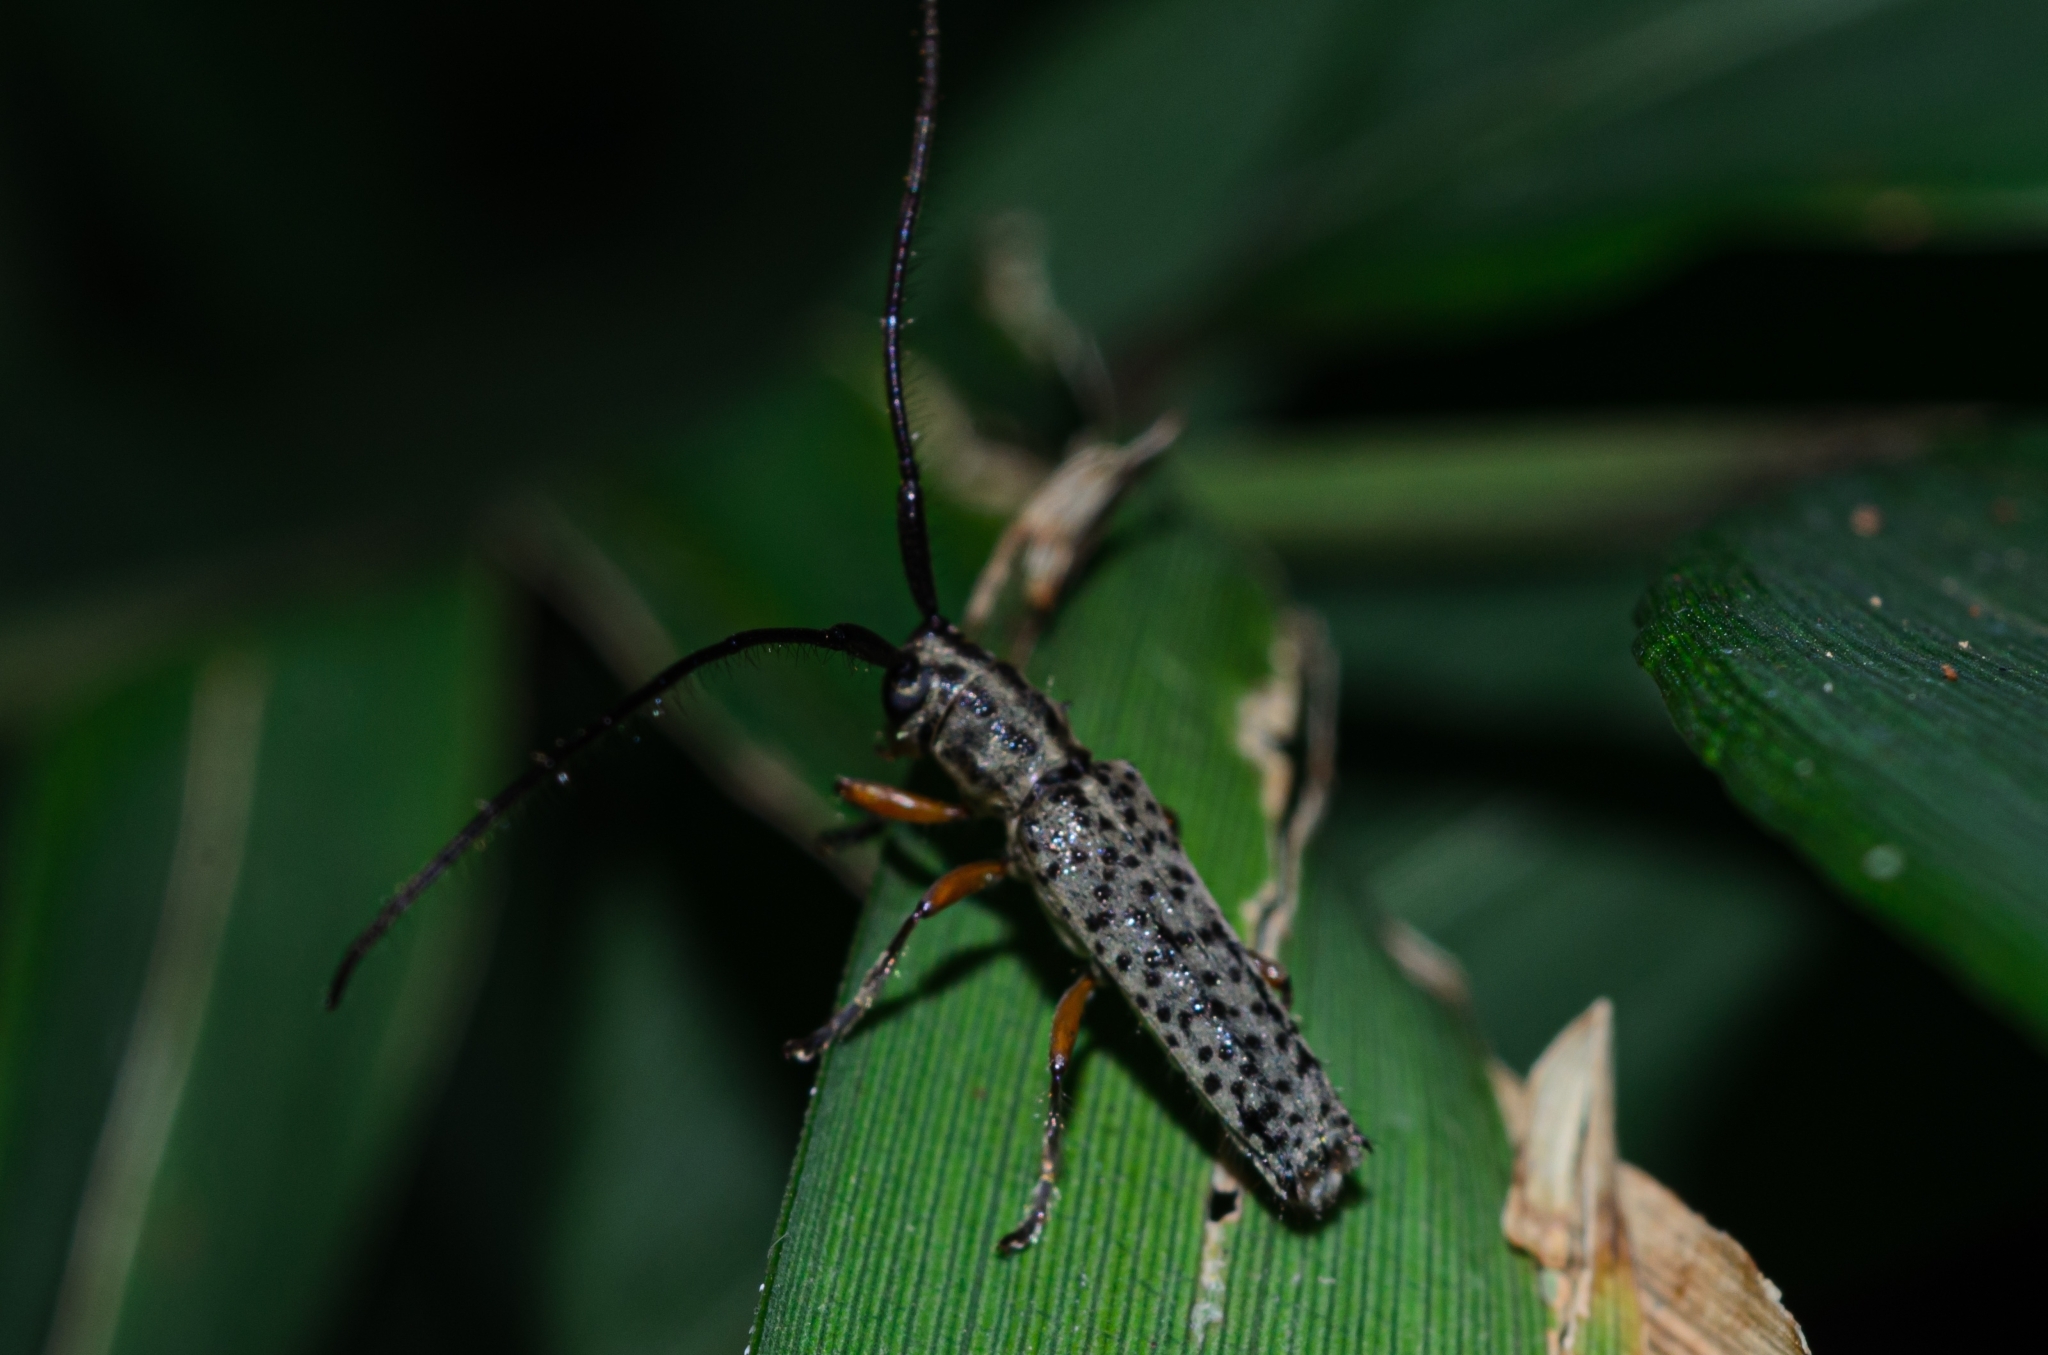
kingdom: Animalia
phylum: Arthropoda
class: Insecta
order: Coleoptera
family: Cerambycidae
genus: Malthonea
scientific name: Malthonea tigrinata
